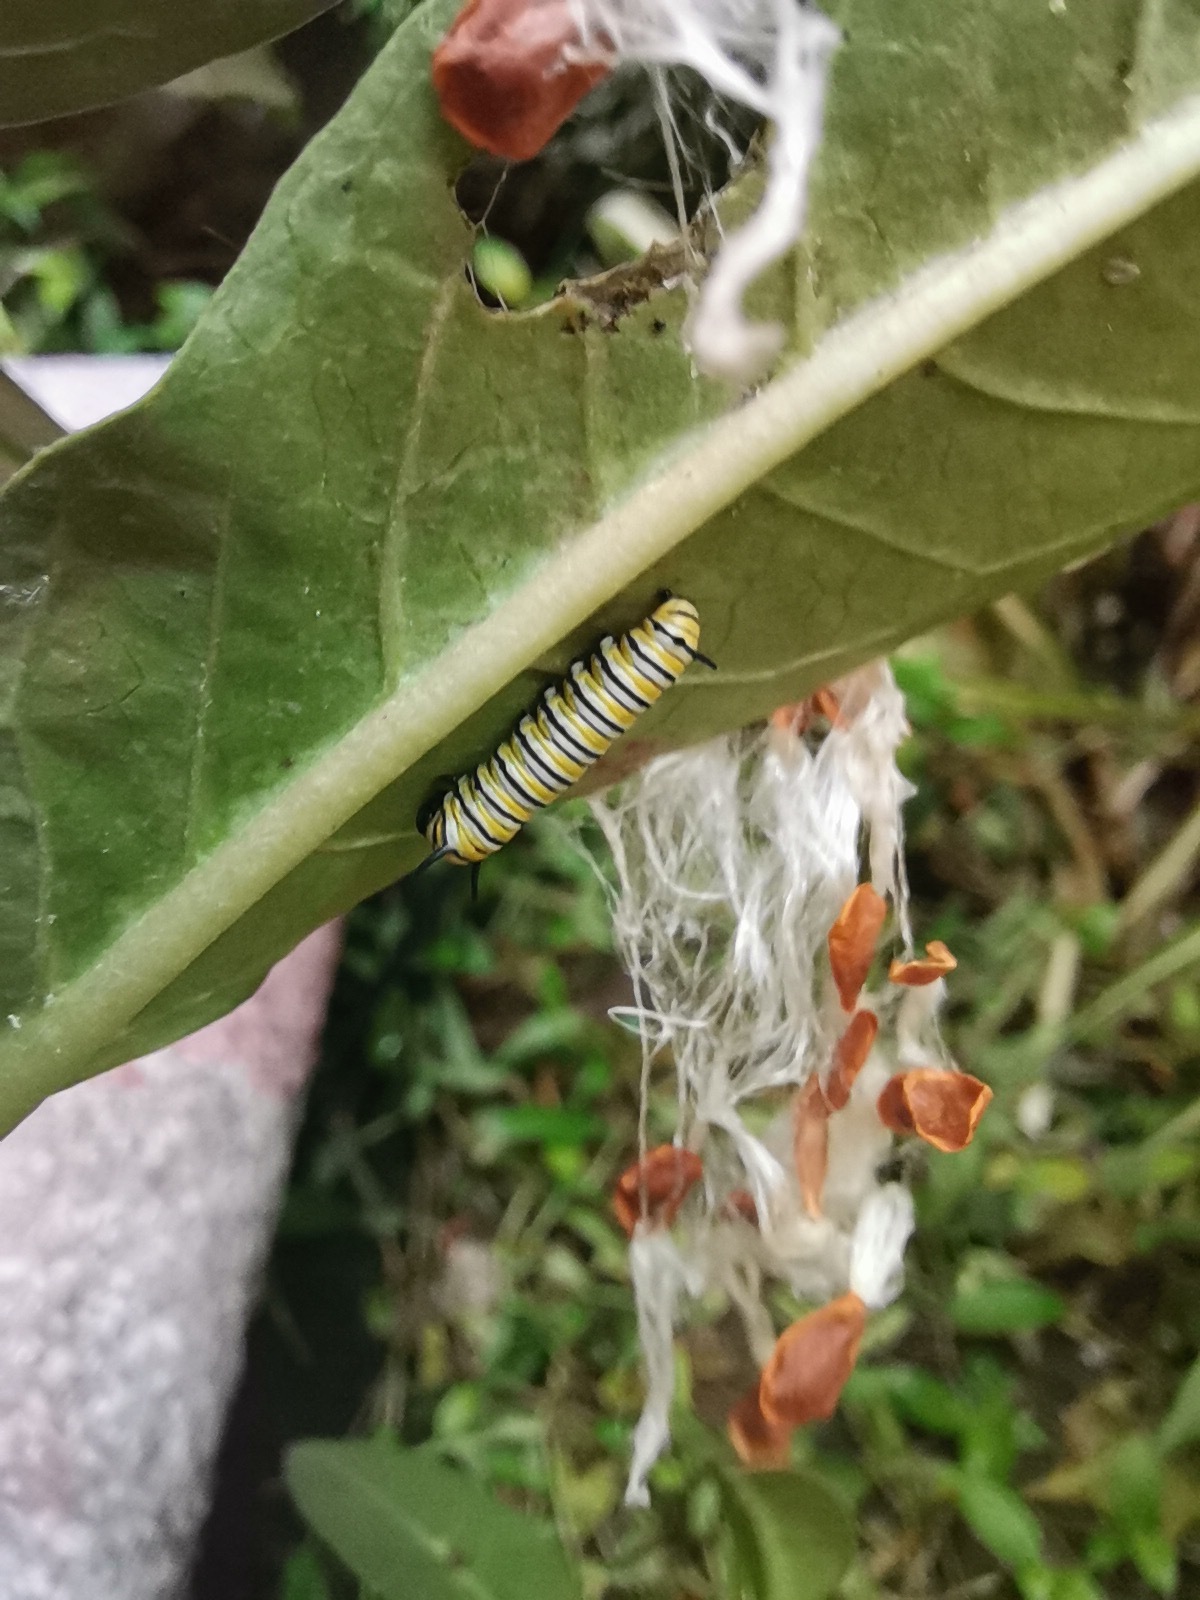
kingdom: Animalia
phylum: Arthropoda
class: Insecta
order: Lepidoptera
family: Nymphalidae
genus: Danaus
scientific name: Danaus plexippus
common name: Monarch
